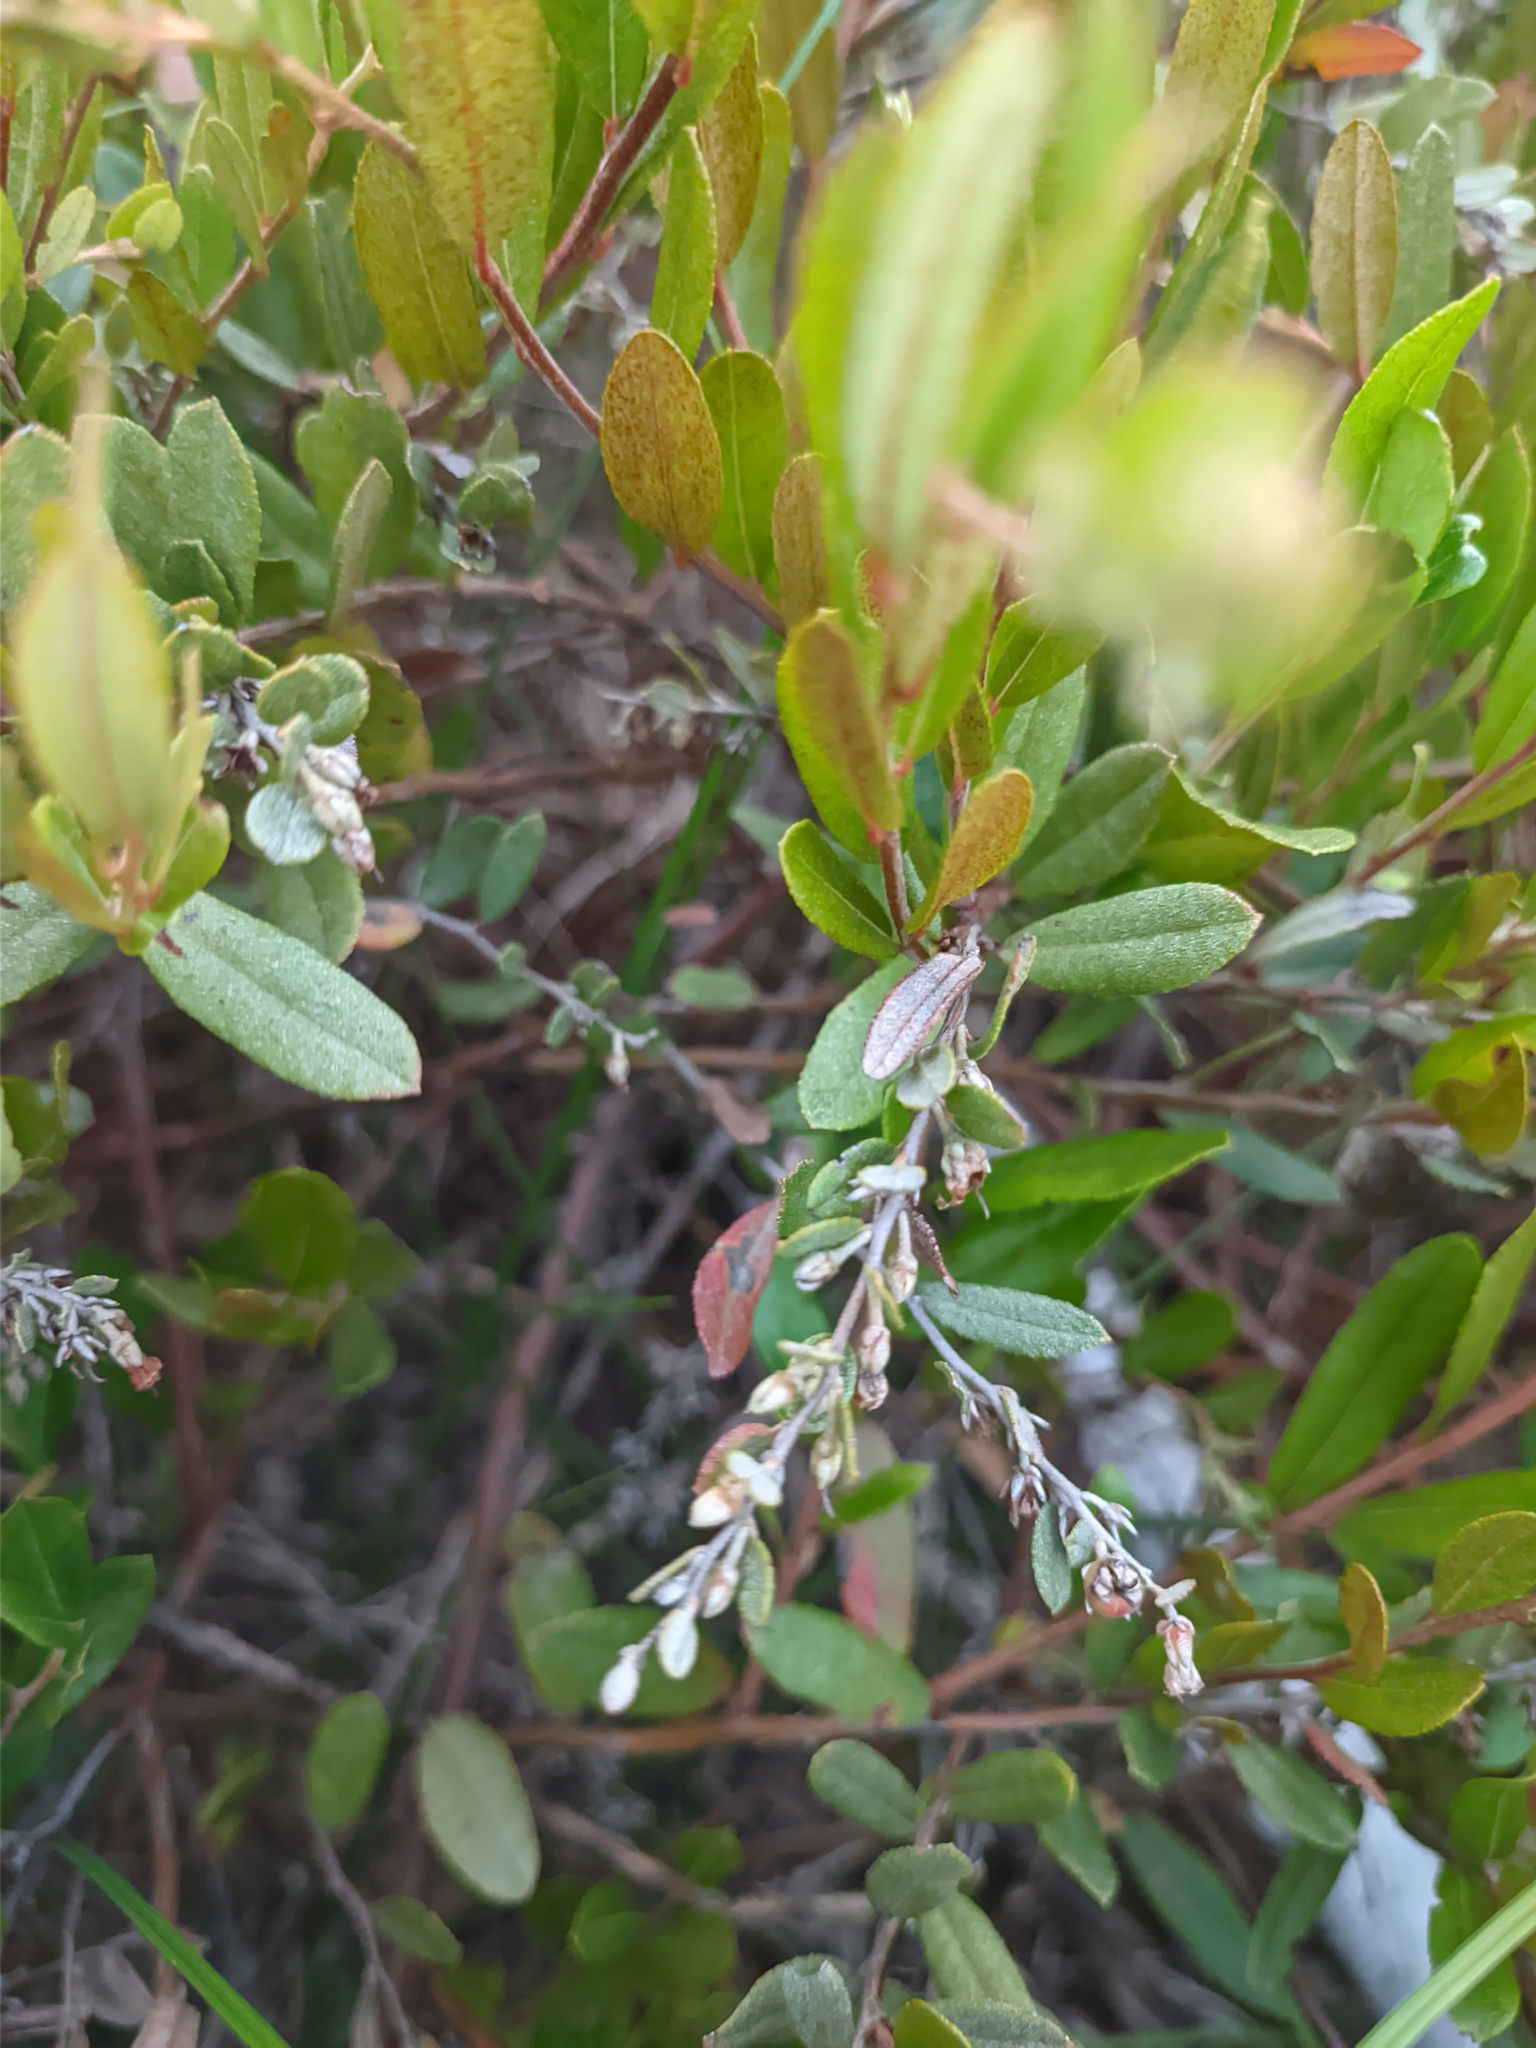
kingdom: Plantae
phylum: Tracheophyta
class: Magnoliopsida
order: Ericales
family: Ericaceae
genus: Chamaedaphne
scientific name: Chamaedaphne calyculata
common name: Leatherleaf
